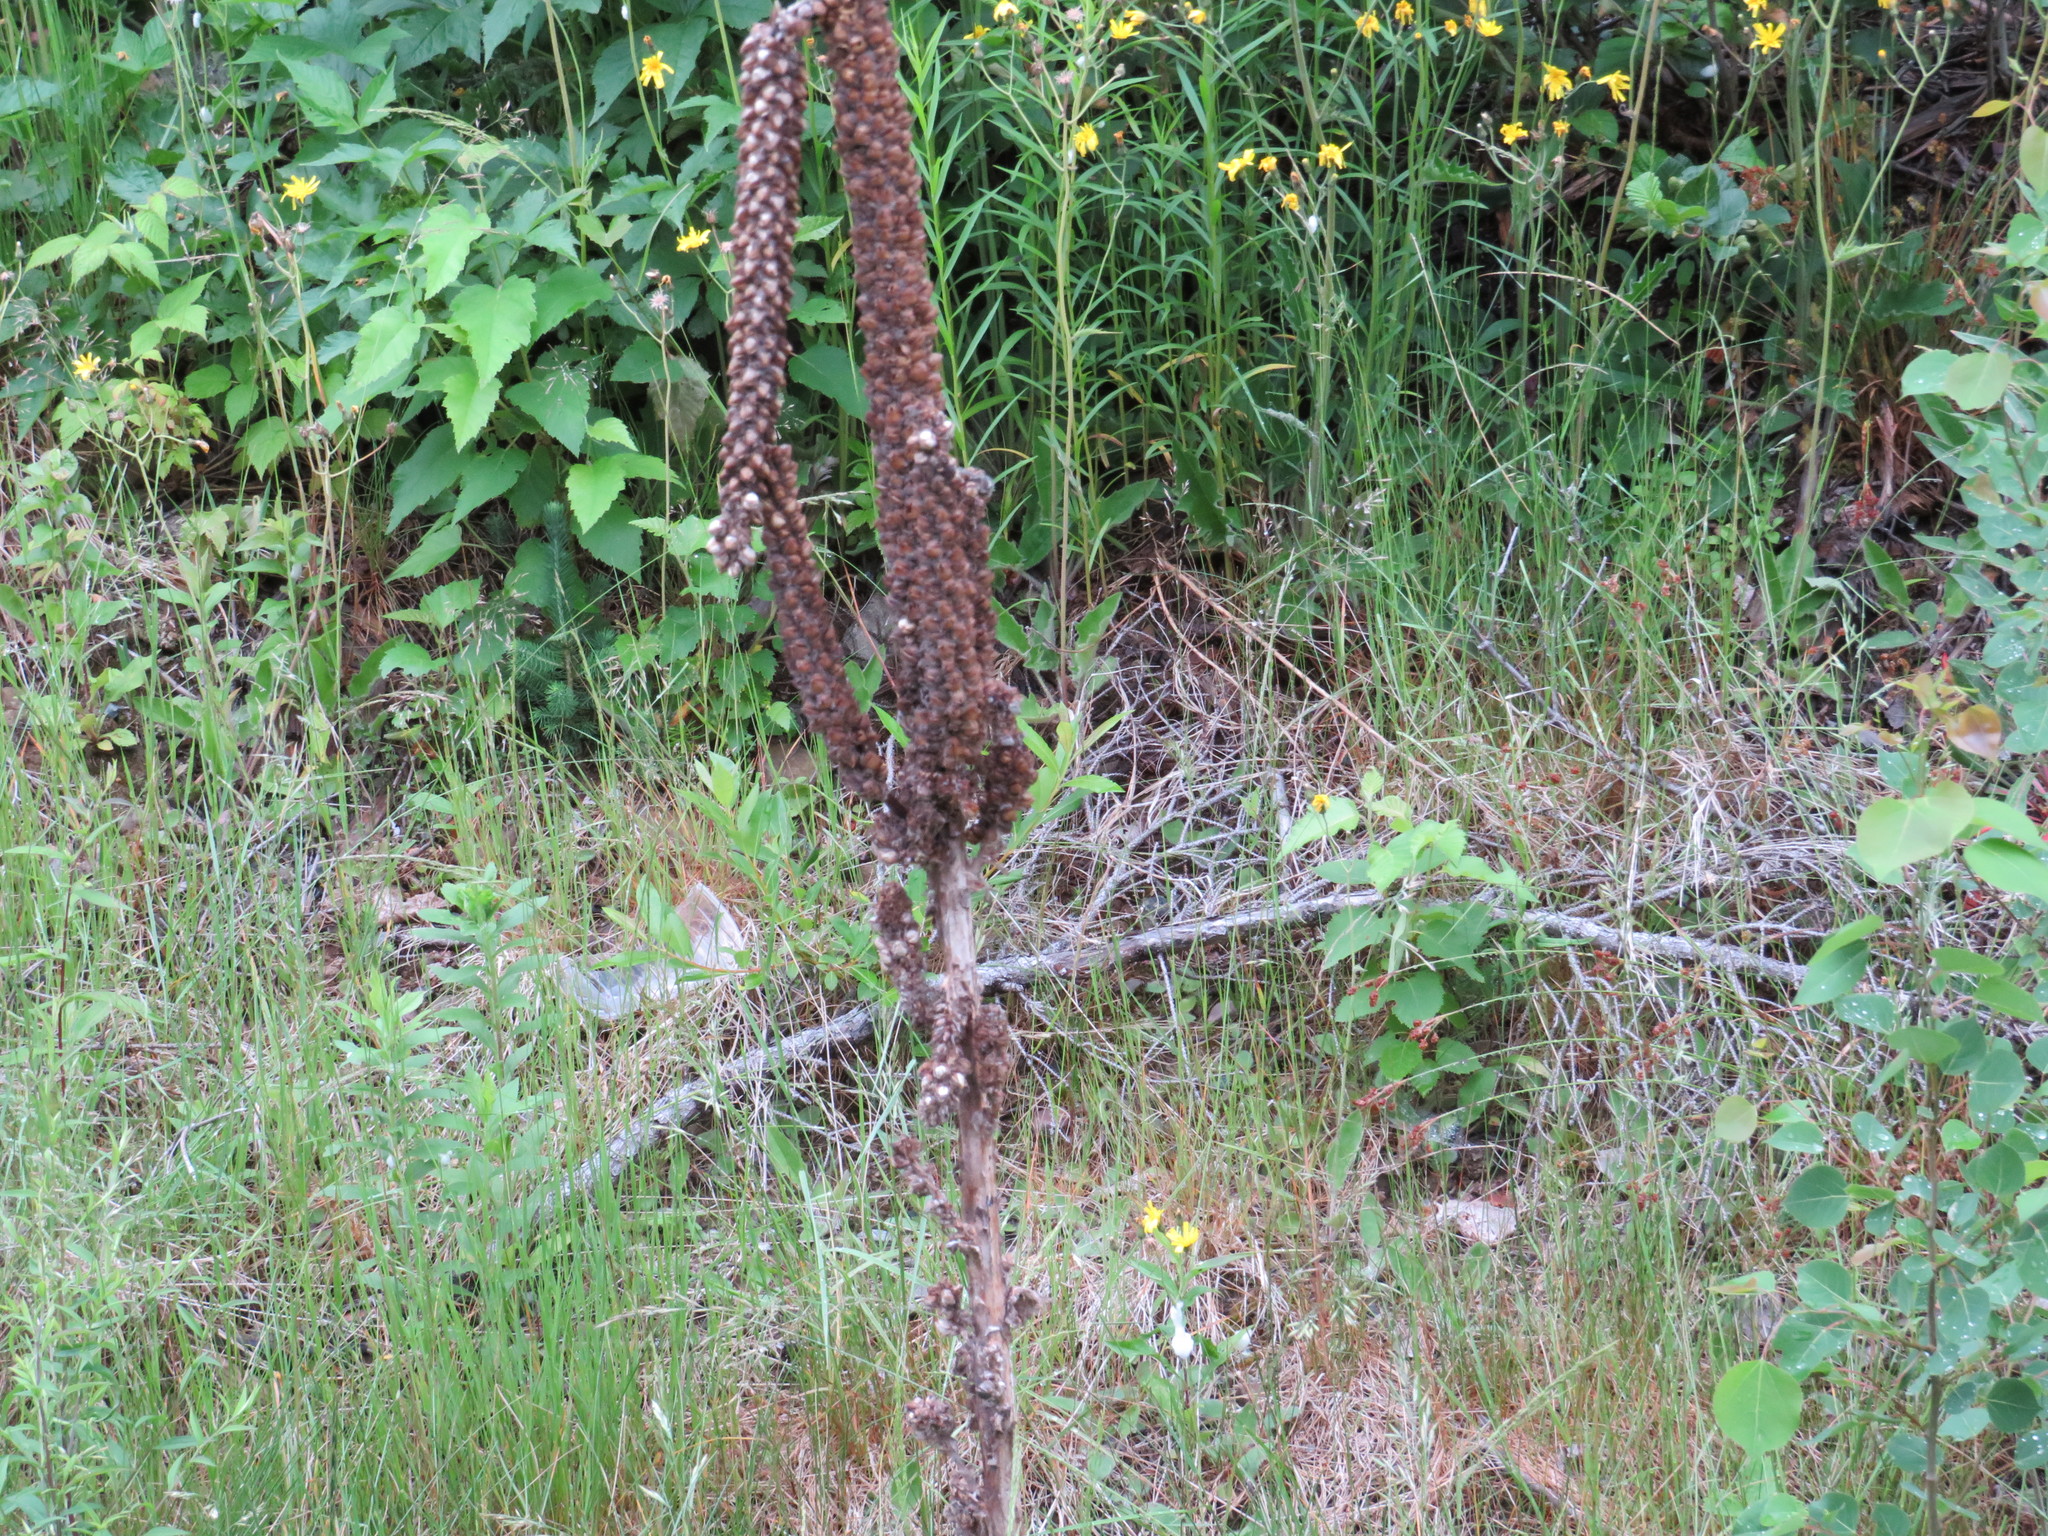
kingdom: Plantae
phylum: Tracheophyta
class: Magnoliopsida
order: Lamiales
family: Scrophulariaceae
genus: Verbascum
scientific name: Verbascum thapsus
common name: Common mullein
